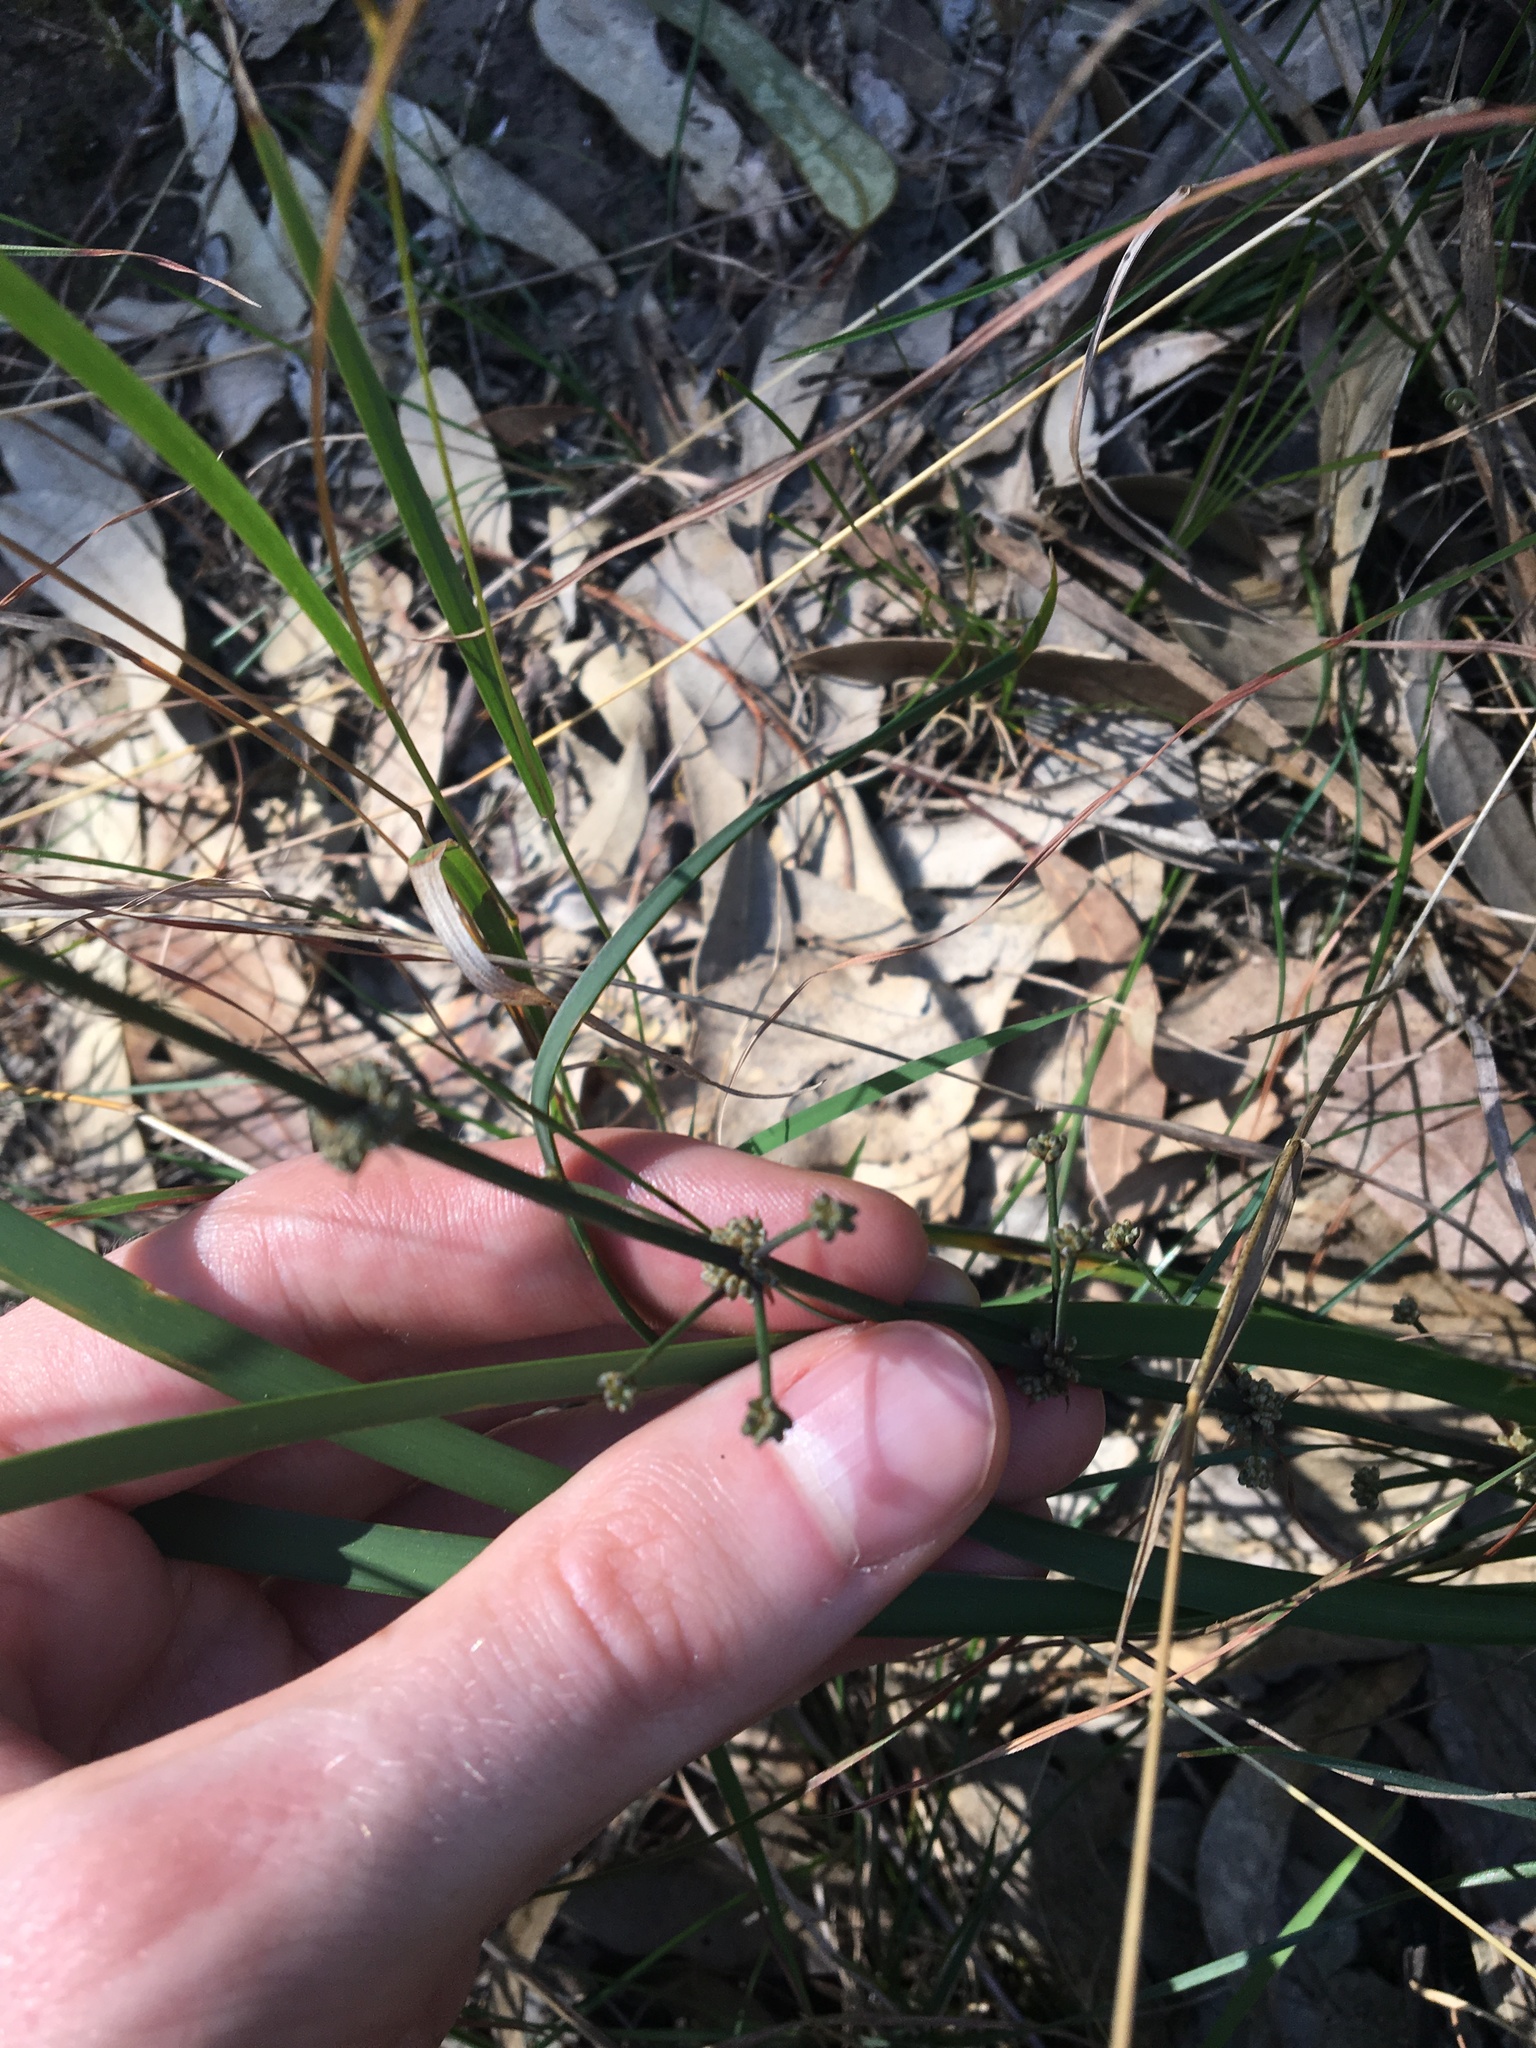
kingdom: Plantae
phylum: Tracheophyta
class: Liliopsida
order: Asparagales
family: Asparagaceae
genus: Lomandra
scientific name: Lomandra multiflora
